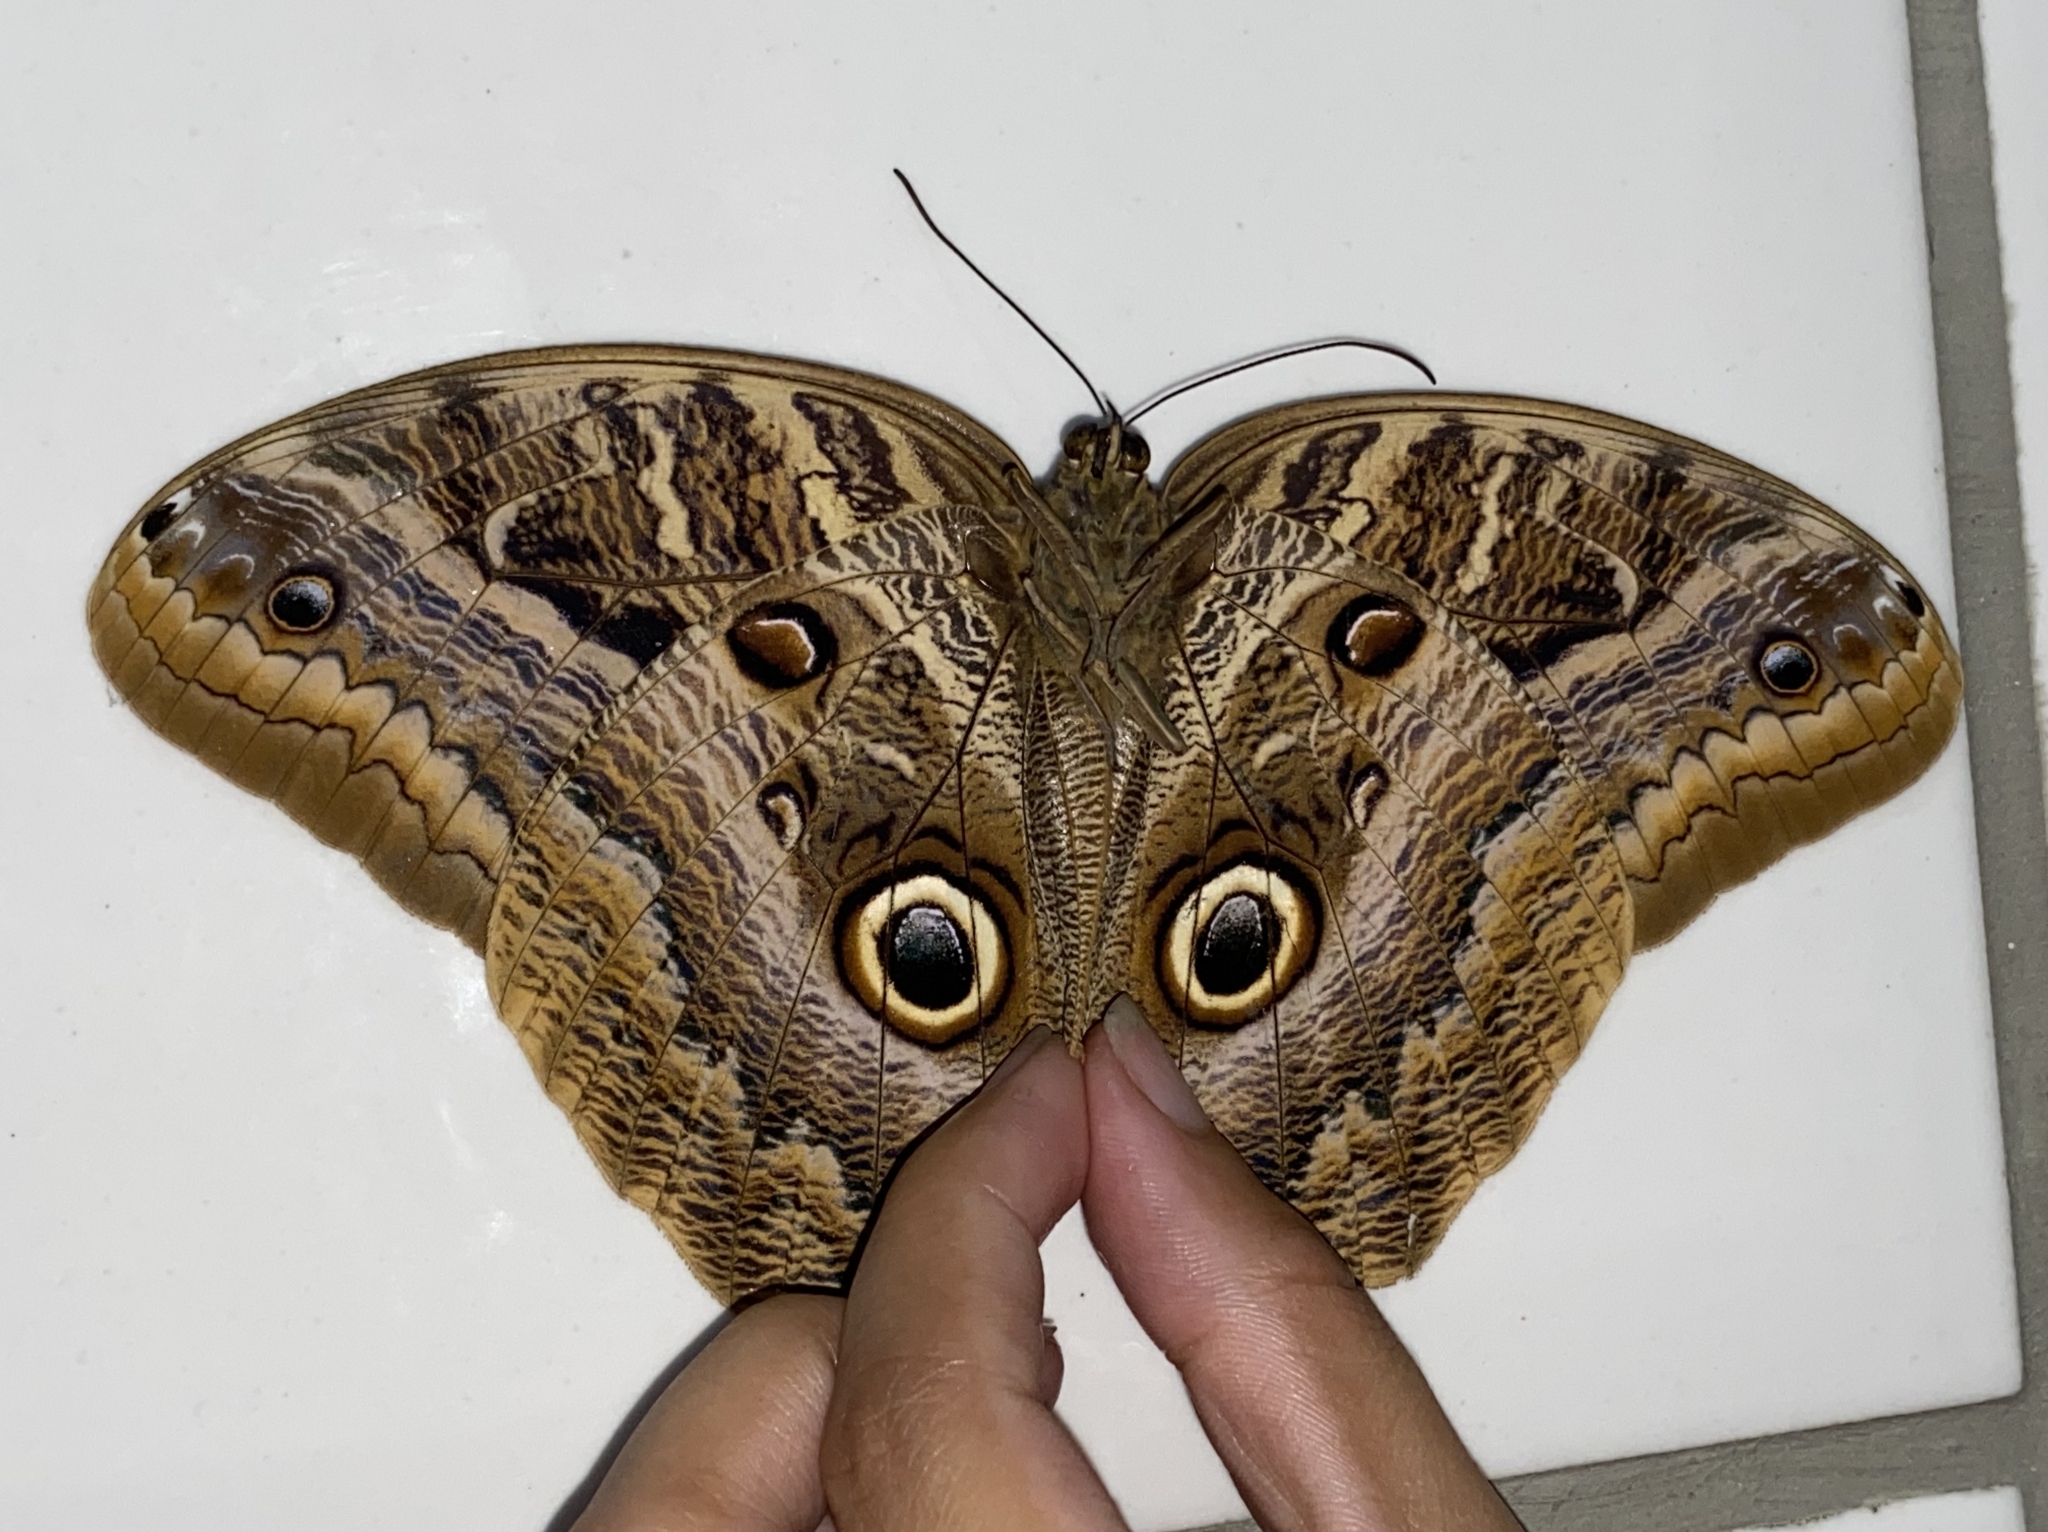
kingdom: Animalia
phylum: Arthropoda
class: Insecta
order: Lepidoptera
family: Nymphalidae
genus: Caligo
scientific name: Caligo illioneus
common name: Dusky owl-butterfly
